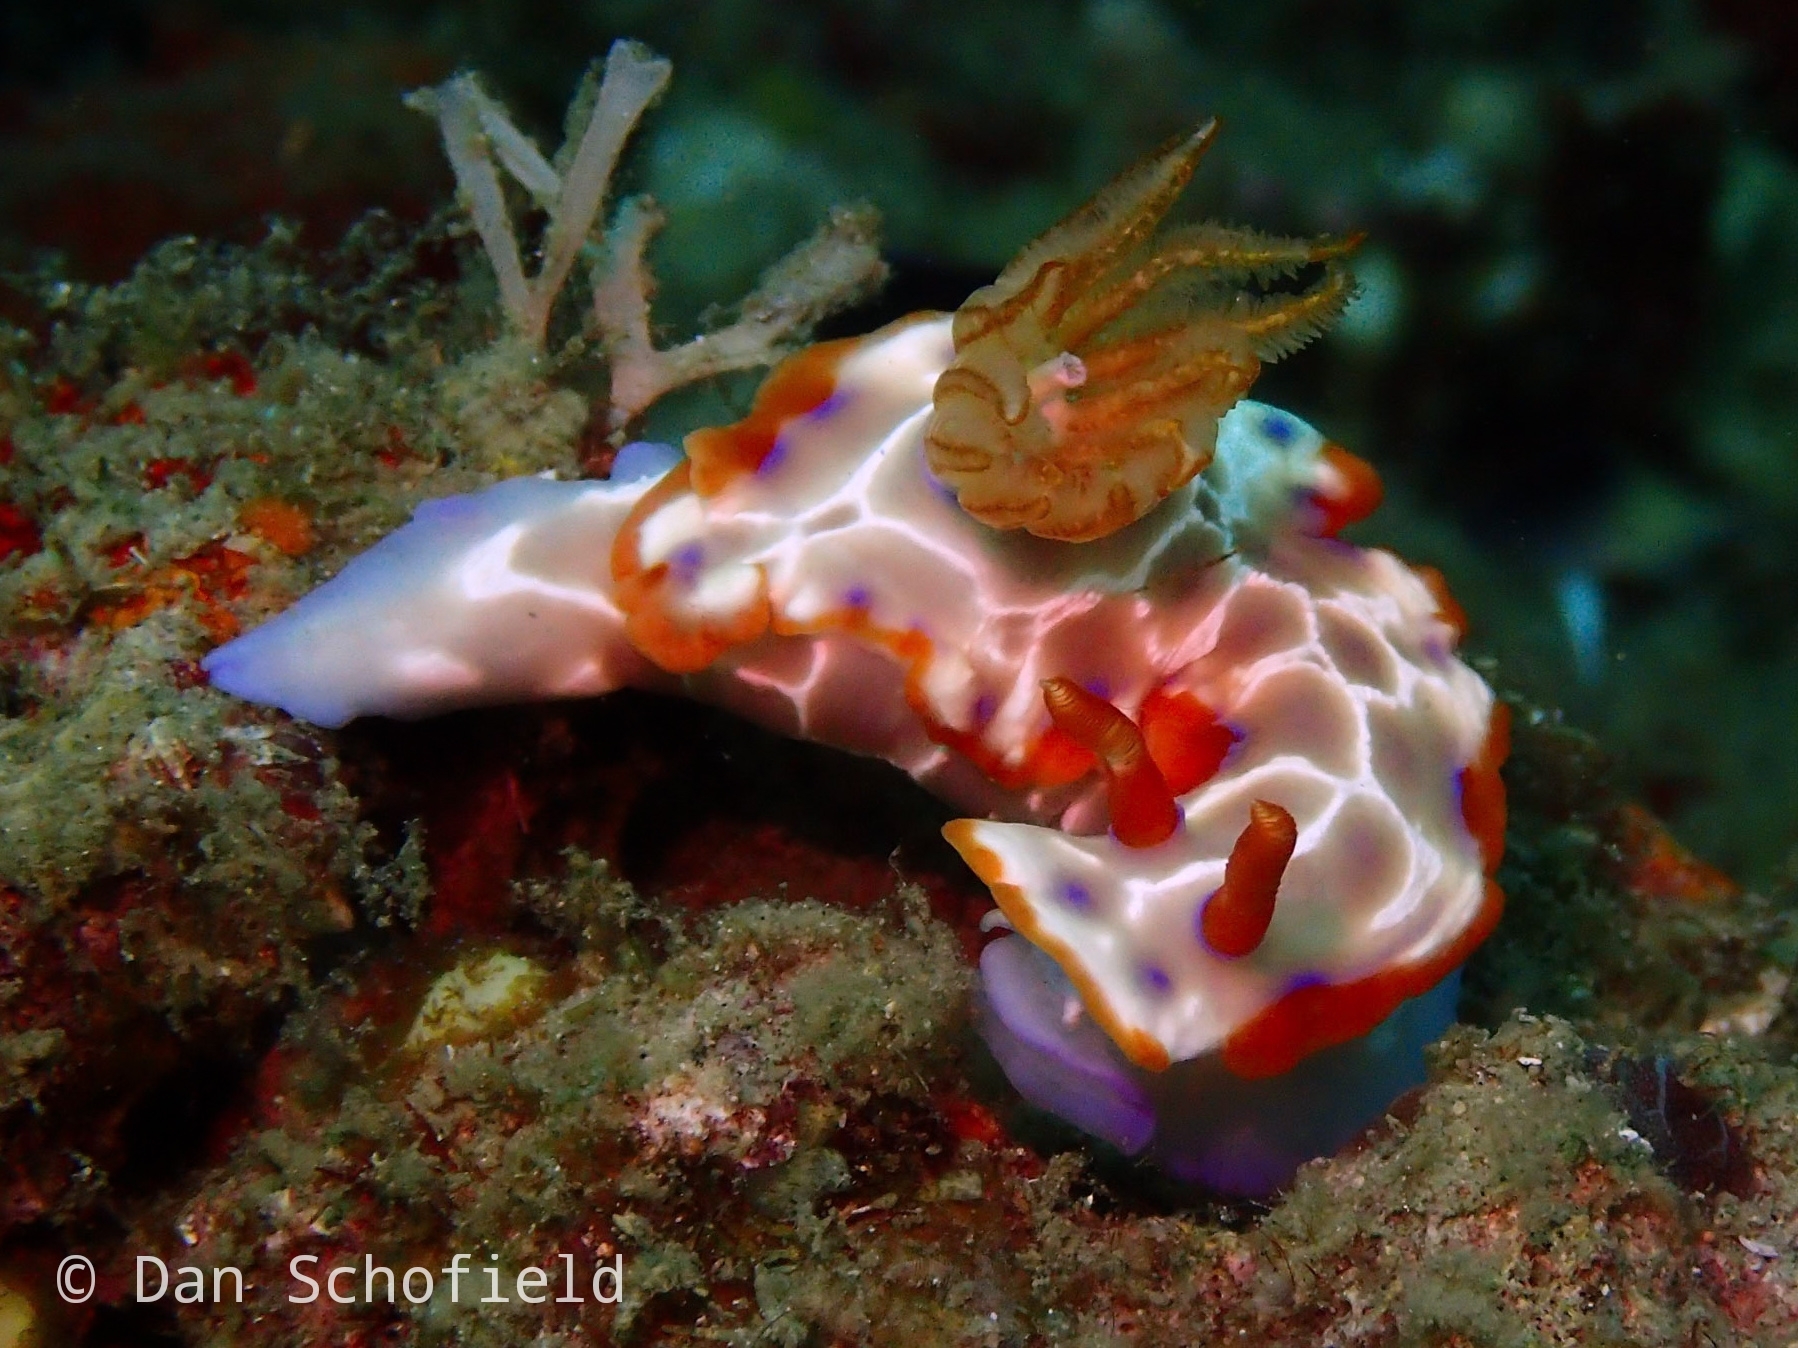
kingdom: Animalia
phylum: Mollusca
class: Gastropoda
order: Nudibranchia
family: Chromodorididae
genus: Hypselodoris
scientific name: Hypselodoris iacula
